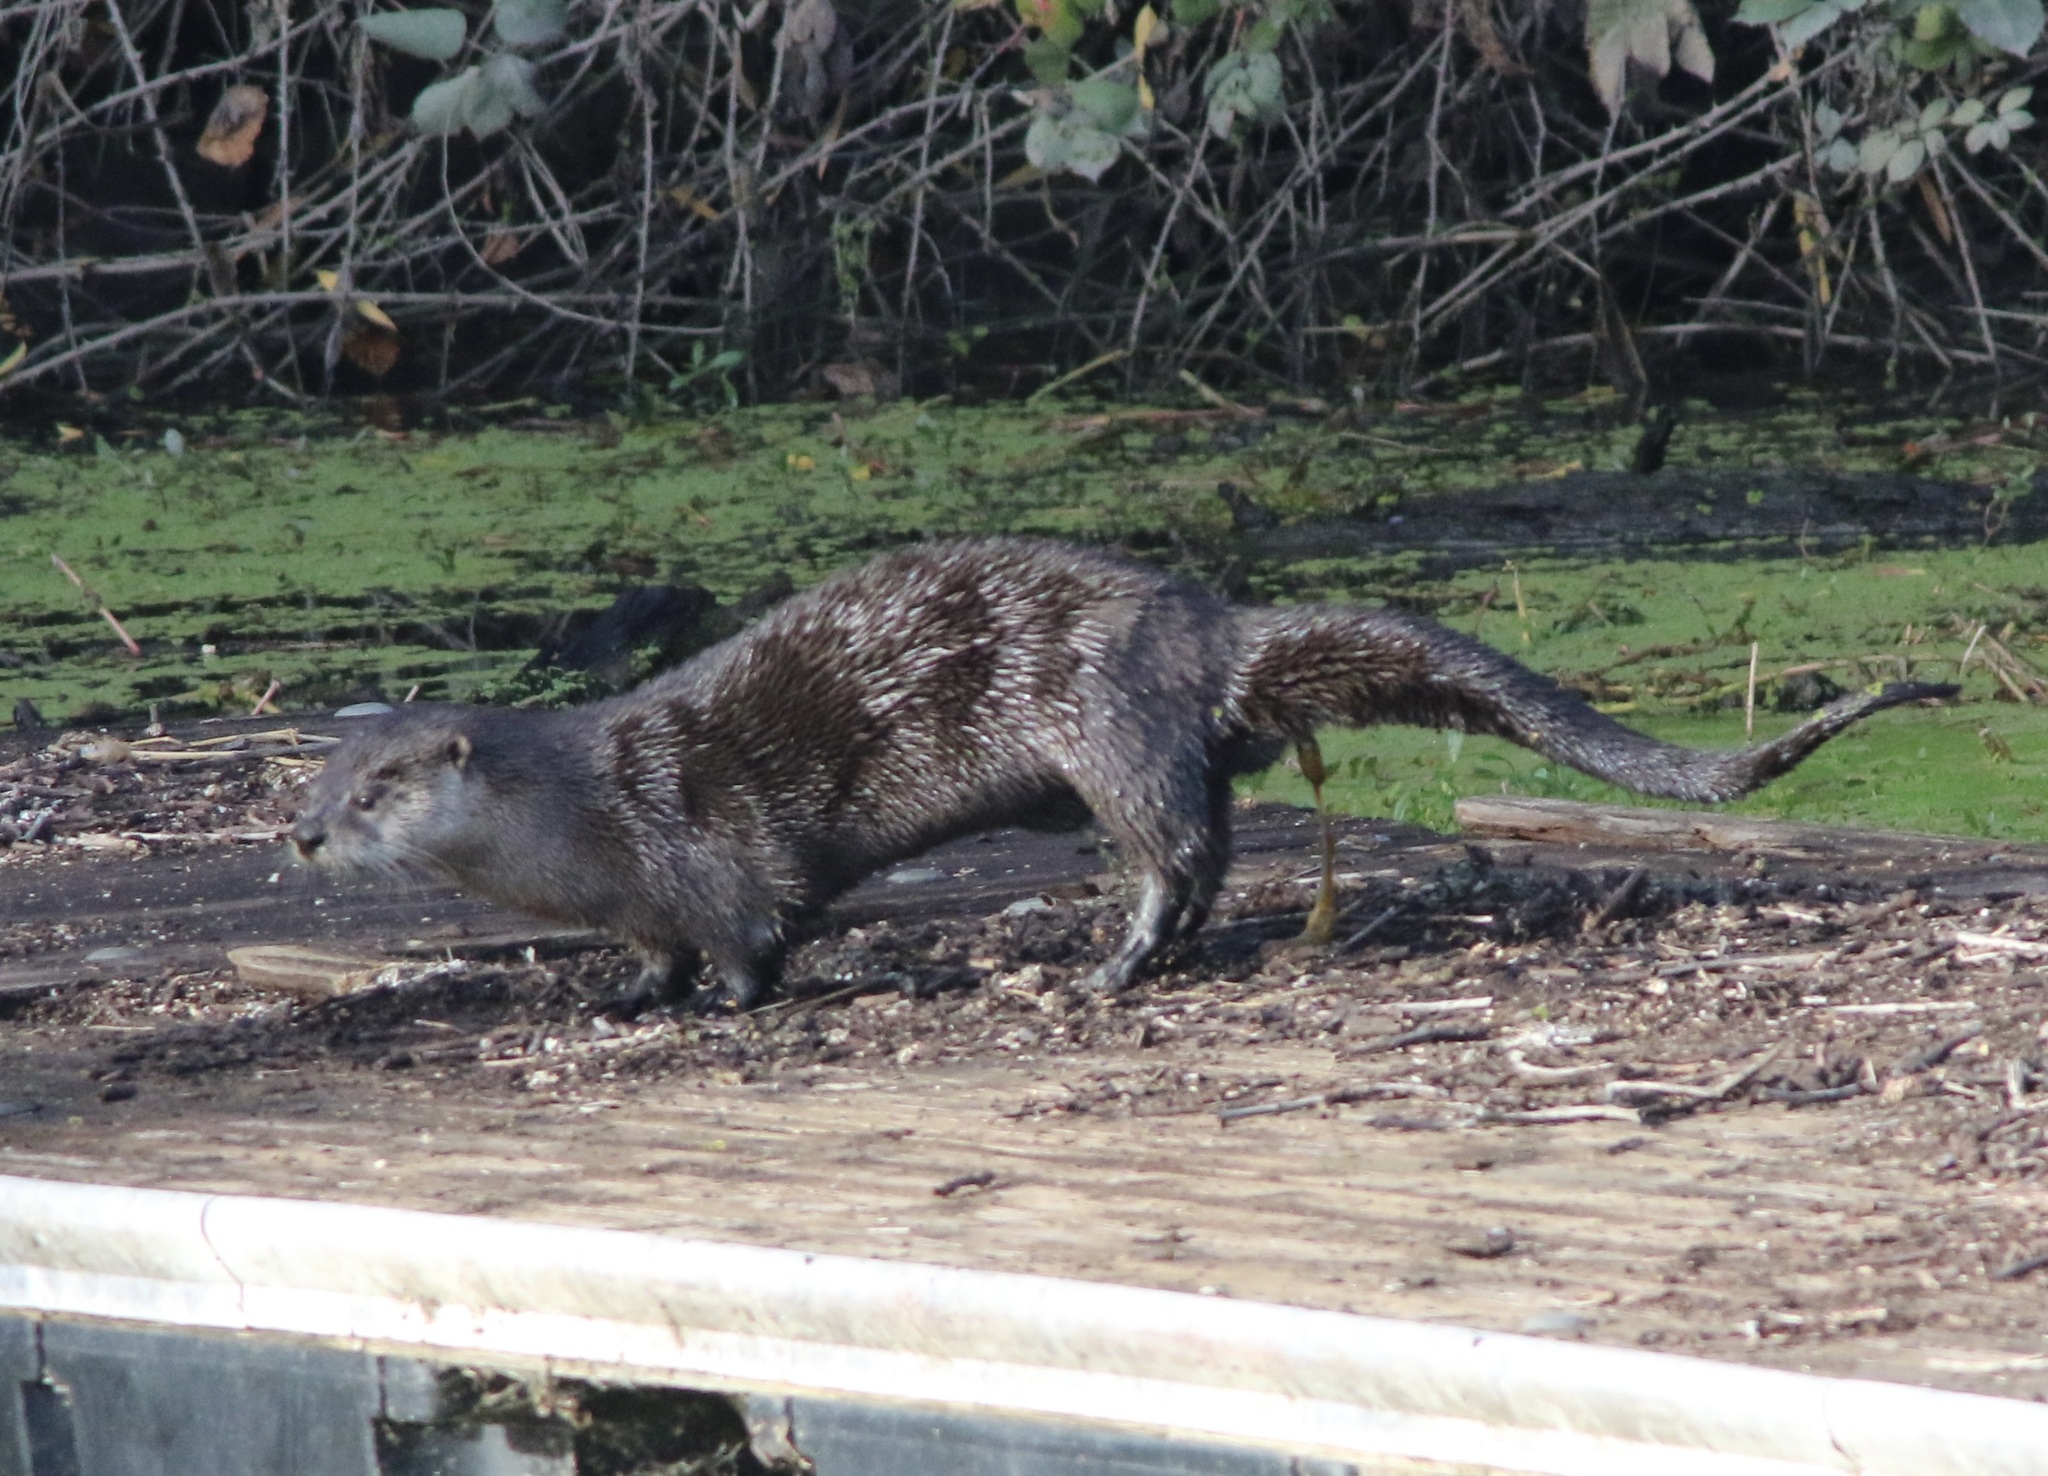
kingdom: Animalia
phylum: Chordata
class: Mammalia
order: Carnivora
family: Mustelidae
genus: Lontra
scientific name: Lontra canadensis
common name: North american river otter
